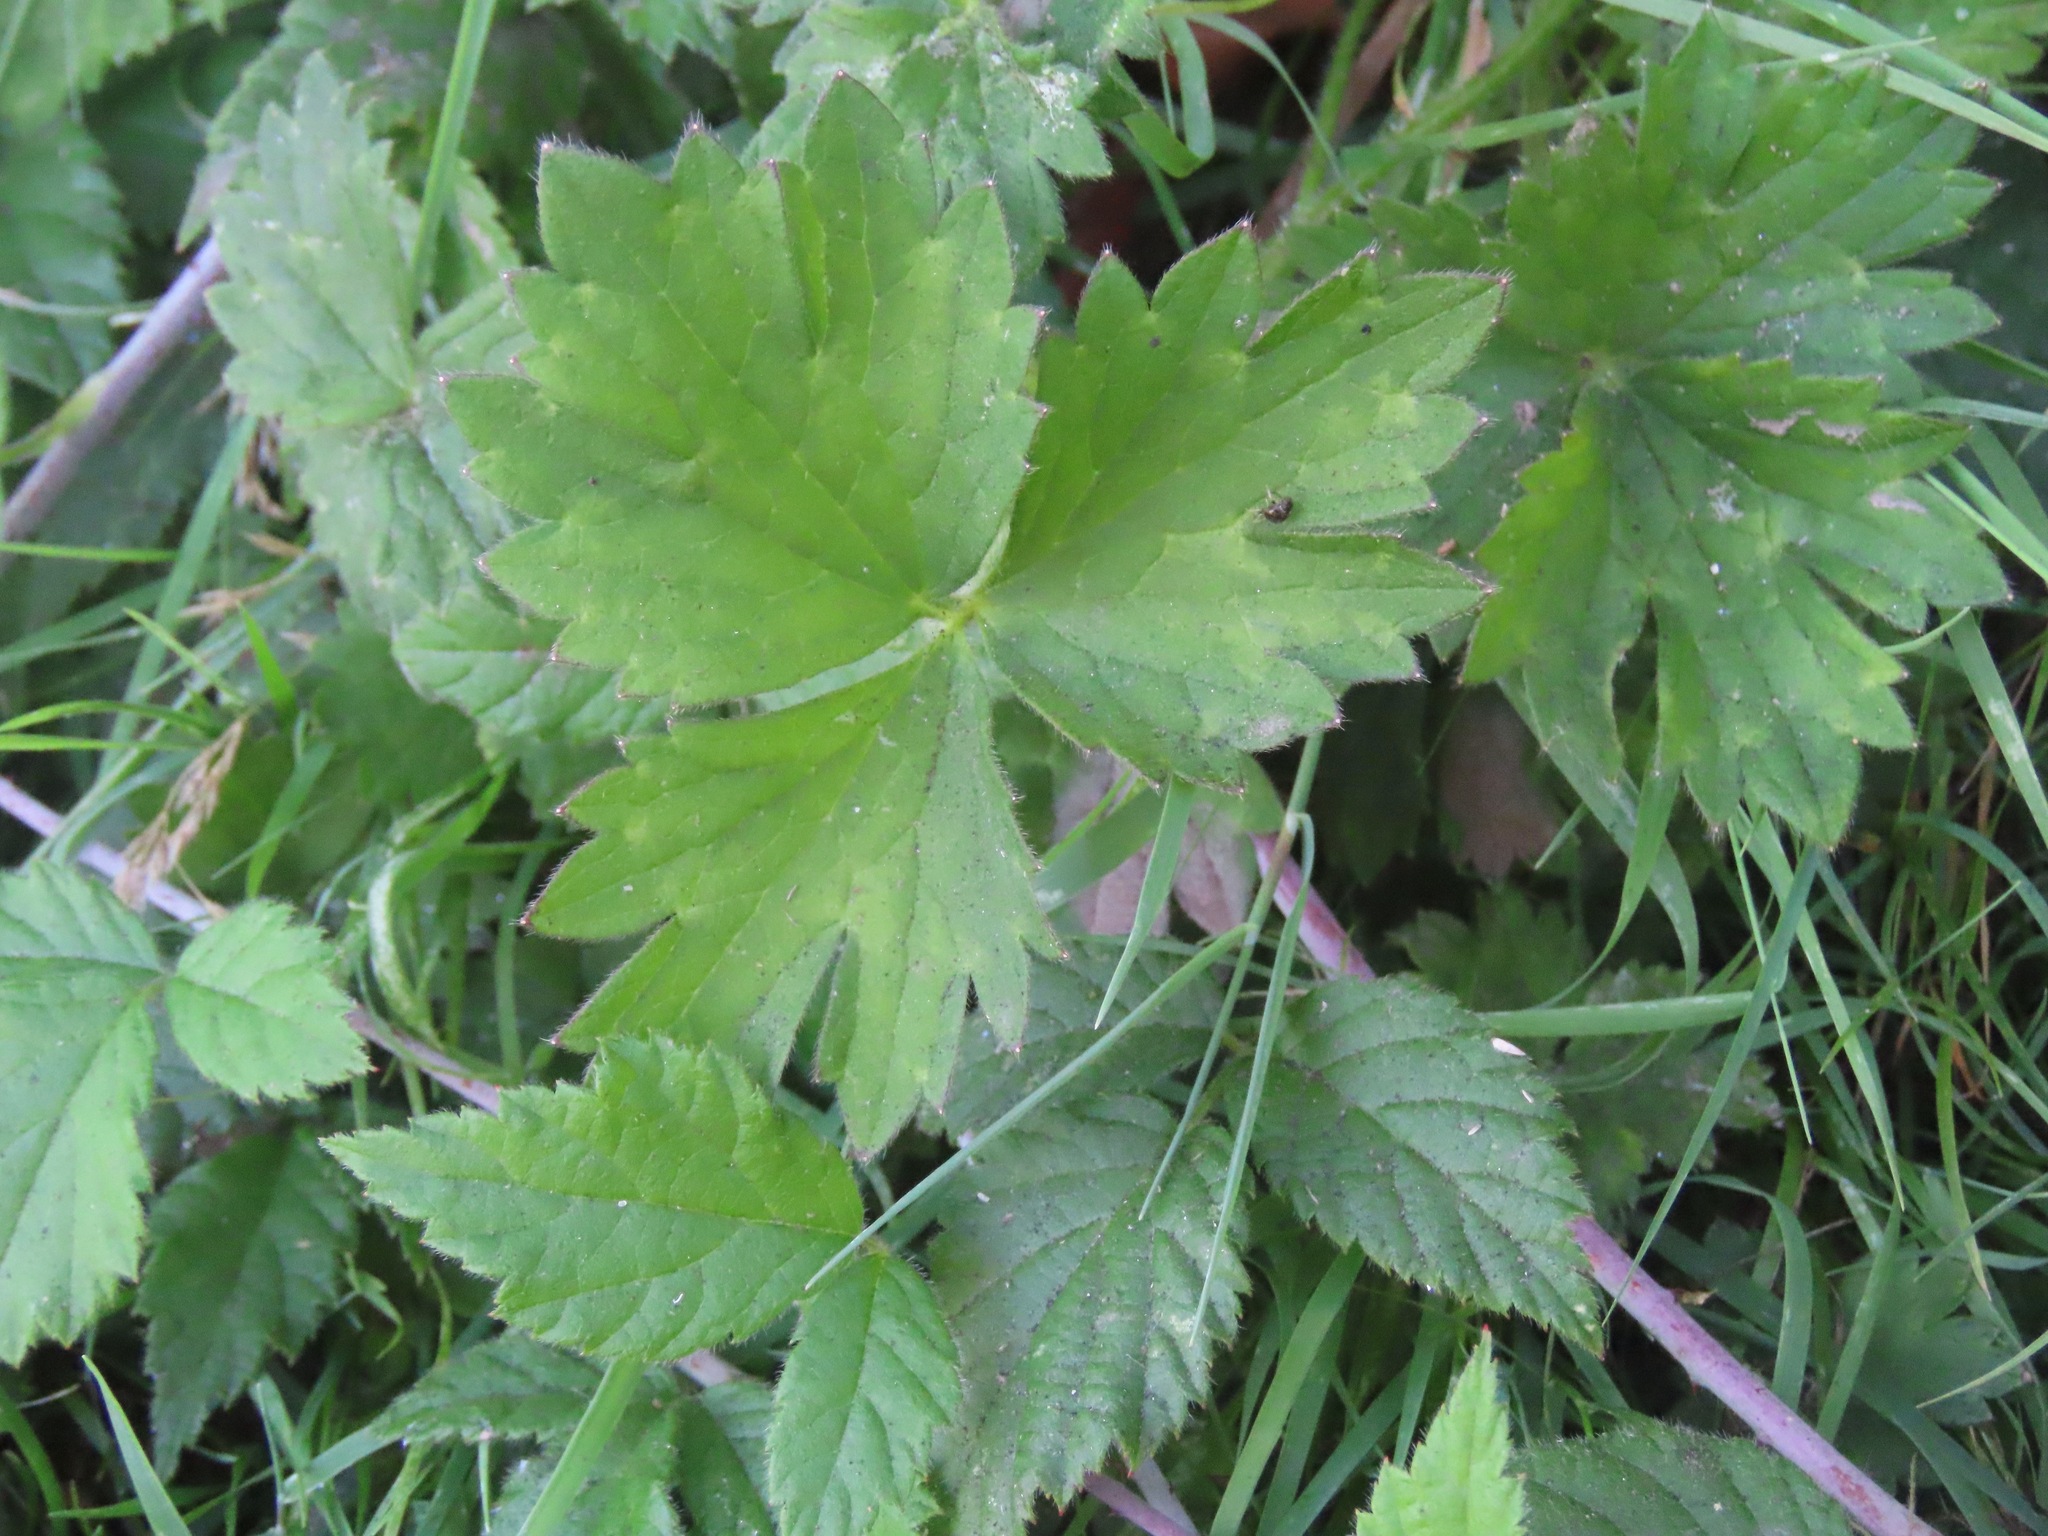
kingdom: Plantae
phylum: Tracheophyta
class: Magnoliopsida
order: Ranunculales
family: Ranunculaceae
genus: Ranunculus
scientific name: Ranunculus repens
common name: Creeping buttercup
